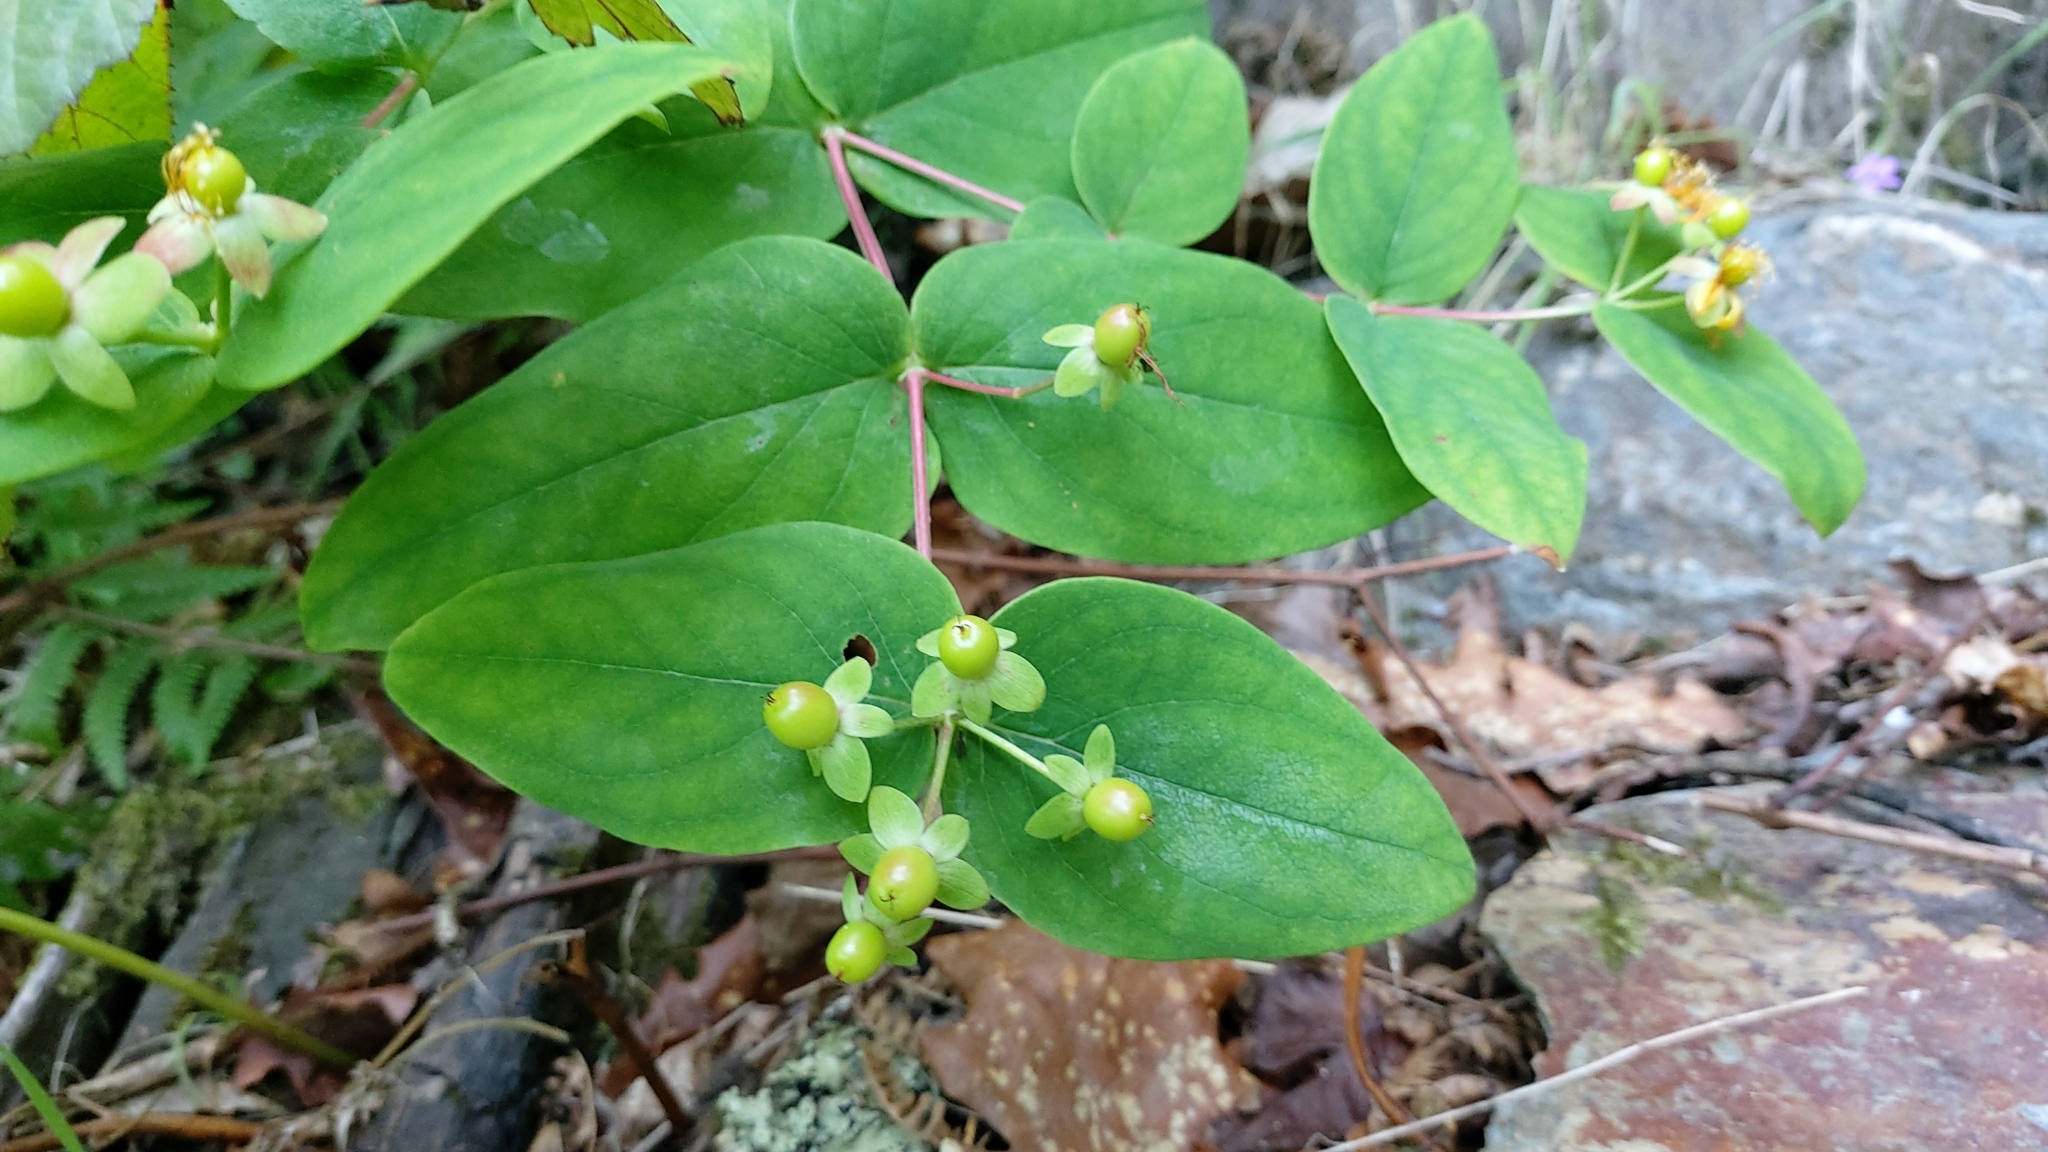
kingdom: Plantae
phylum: Tracheophyta
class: Magnoliopsida
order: Malpighiales
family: Hypericaceae
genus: Hypericum
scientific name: Hypericum androsaemum
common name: Sweet-amber
